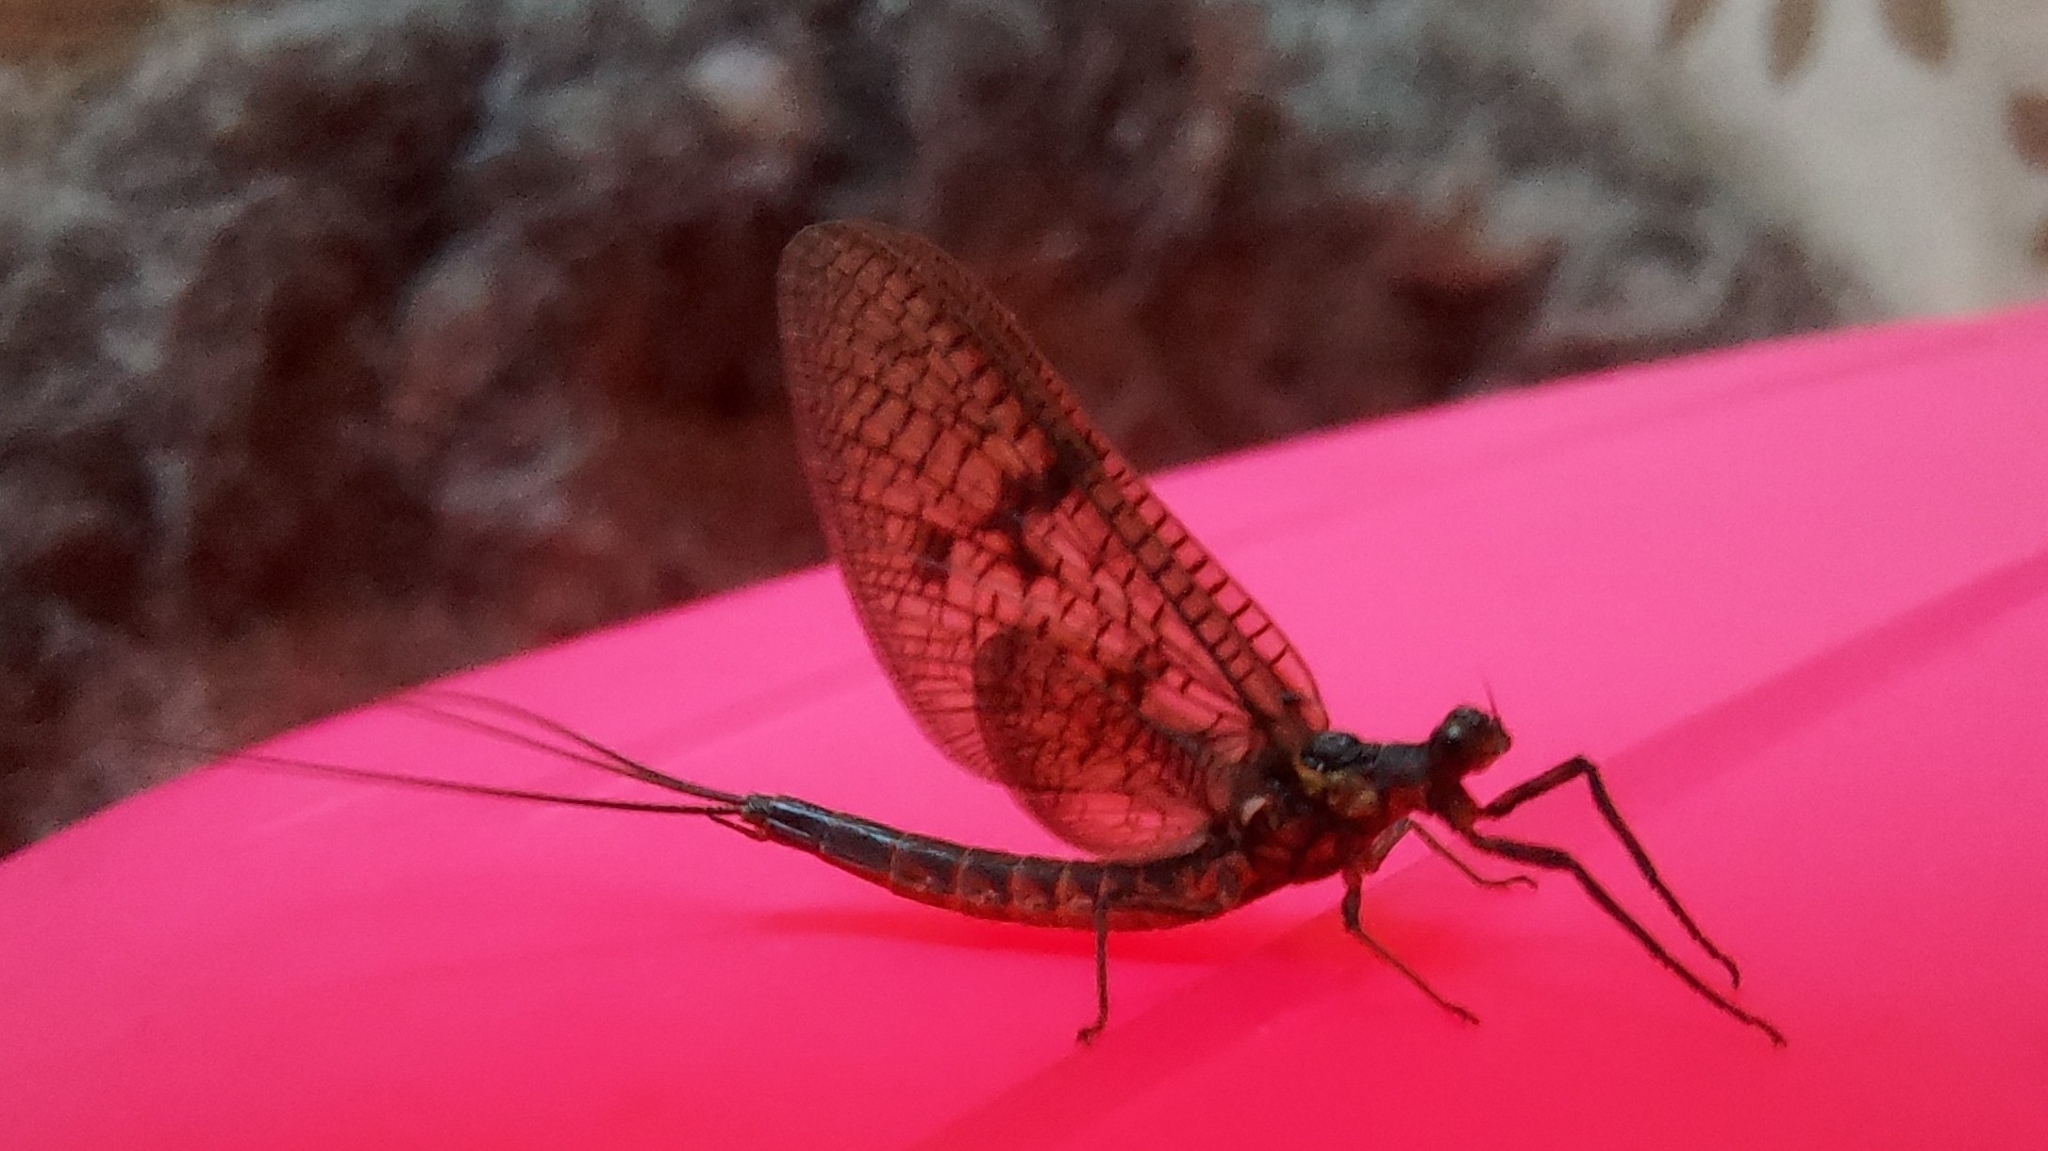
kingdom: Animalia
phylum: Arthropoda
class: Insecta
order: Ephemeroptera
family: Ephemeridae
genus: Ephemera
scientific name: Ephemera vulgata
